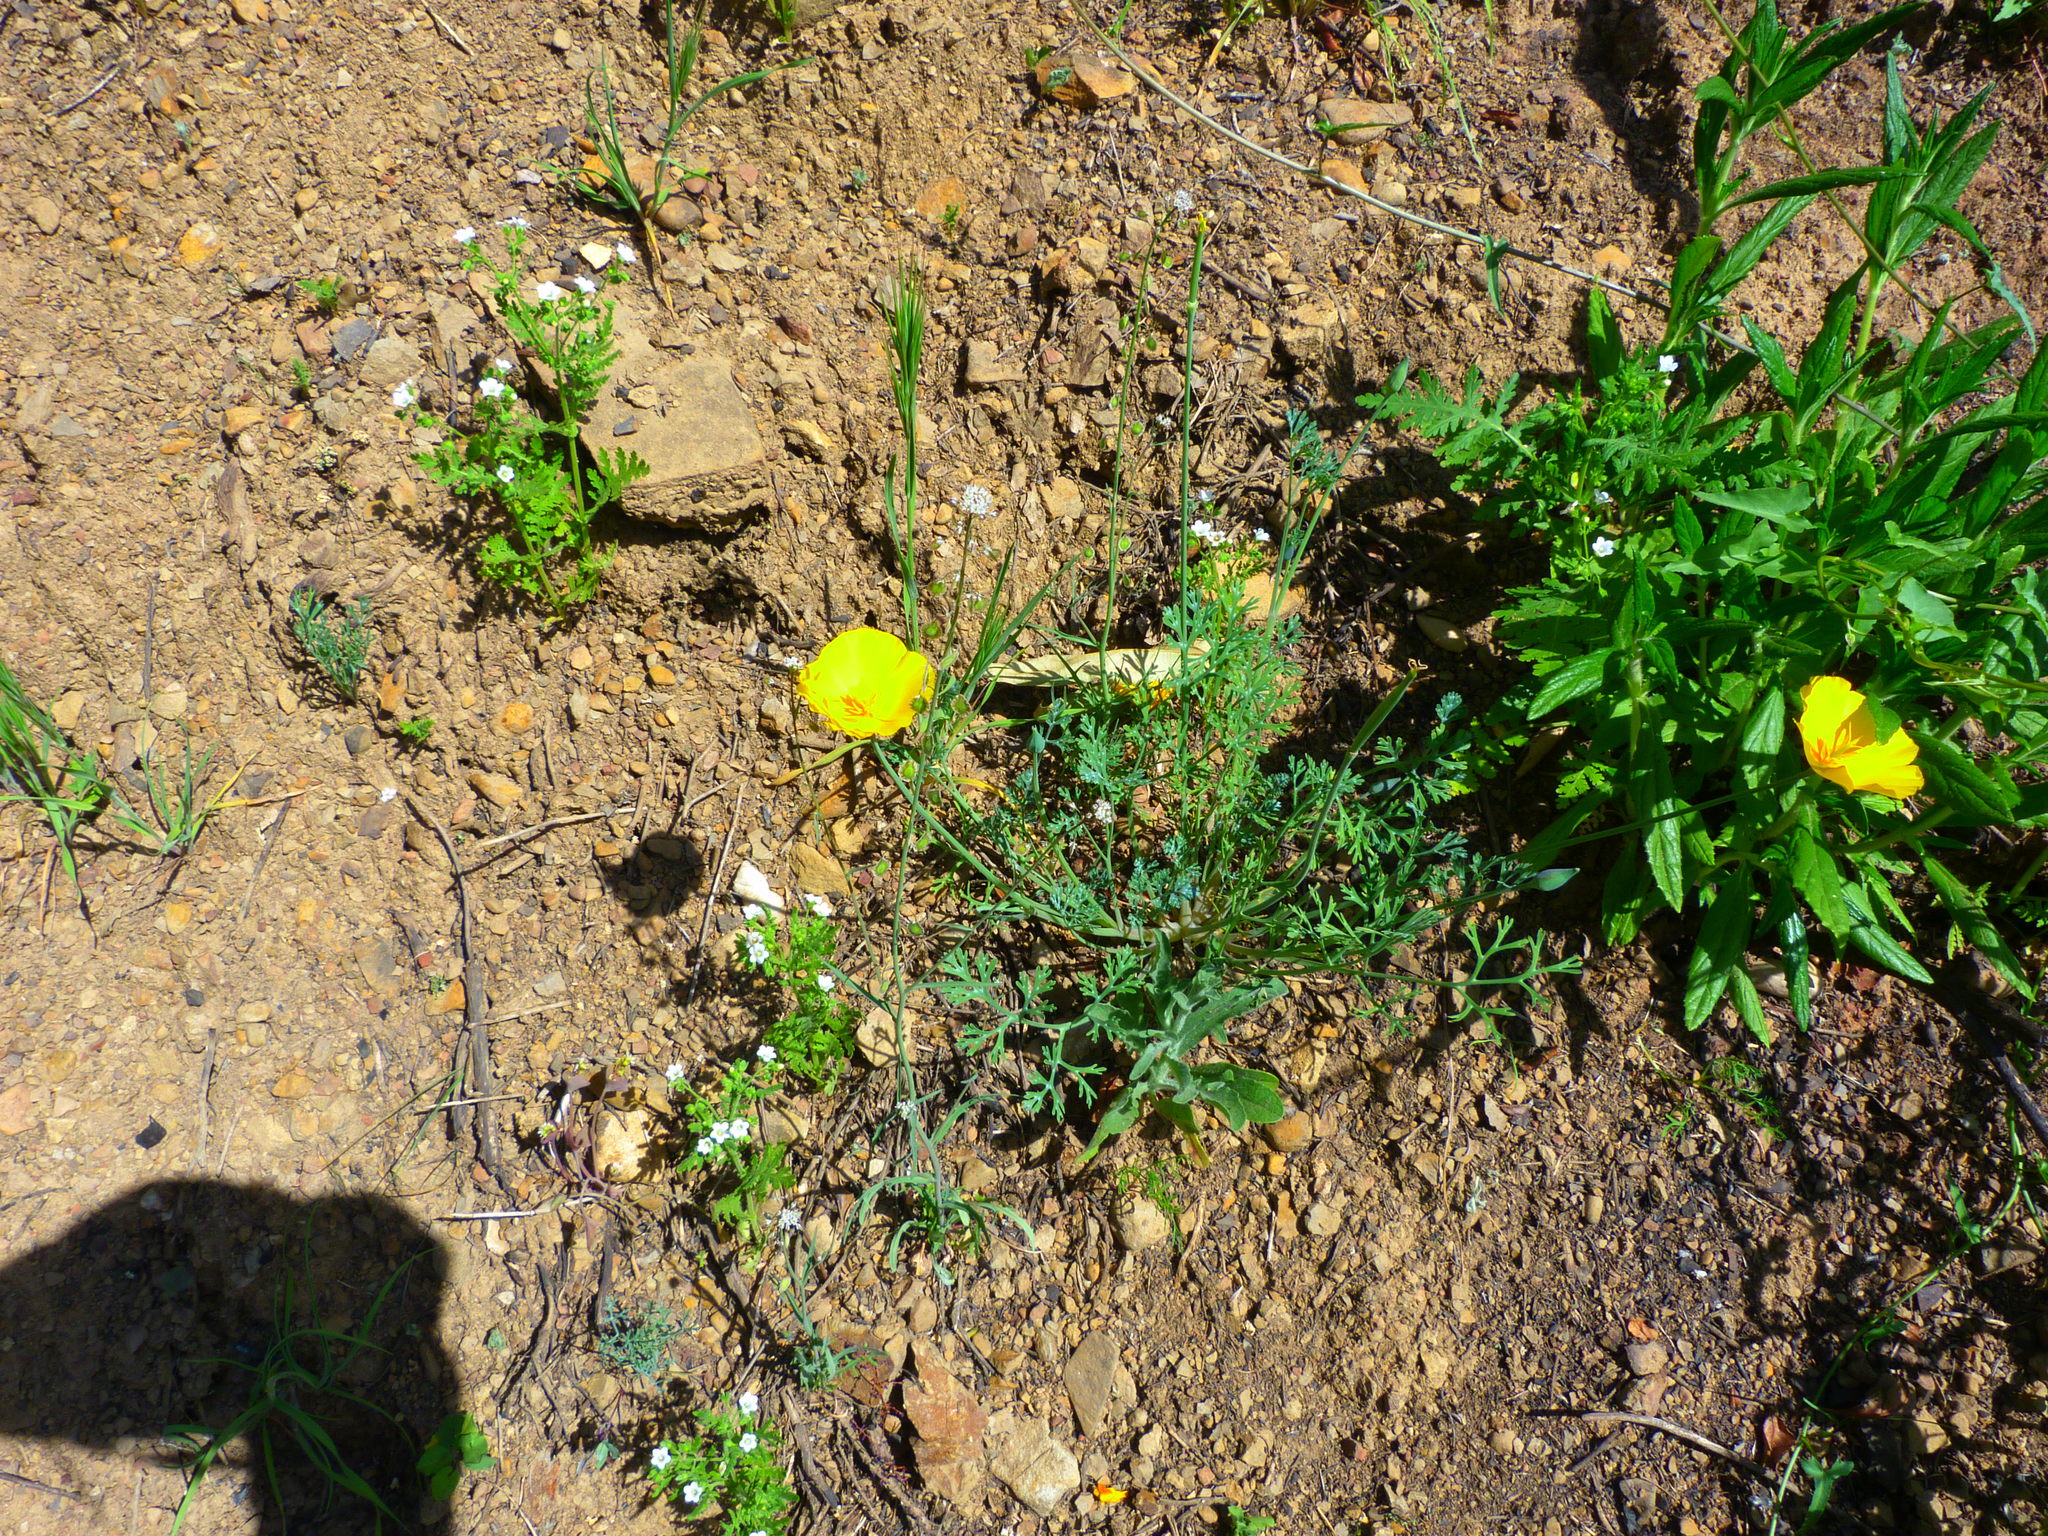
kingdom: Plantae
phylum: Tracheophyta
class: Magnoliopsida
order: Ranunculales
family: Papaveraceae
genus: Eschscholzia
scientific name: Eschscholzia californica
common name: California poppy
